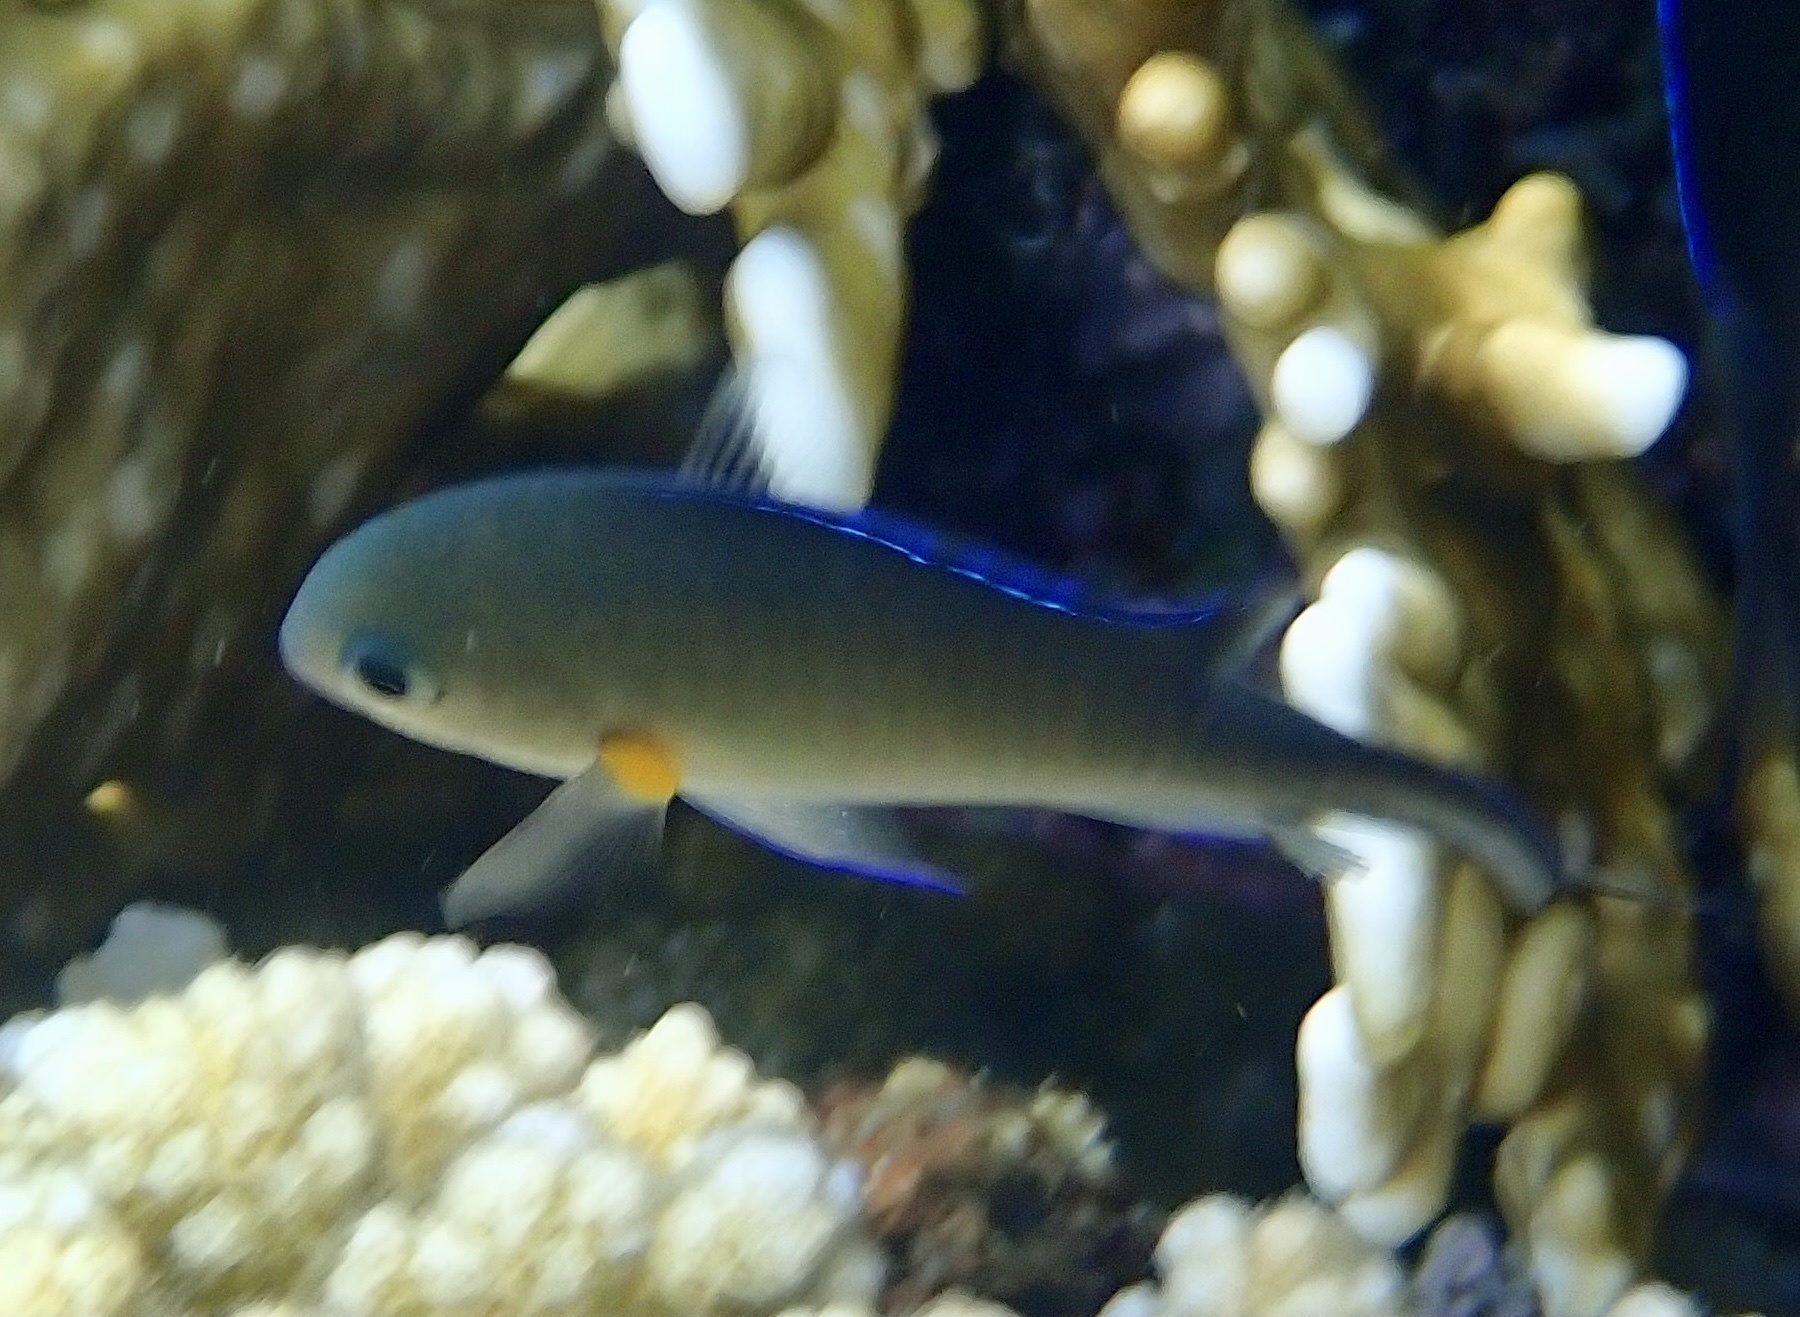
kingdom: Animalia
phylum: Chordata
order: Perciformes
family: Pomacentridae
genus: Chromis
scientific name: Chromis flavaxilla
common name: Arabian chromis
